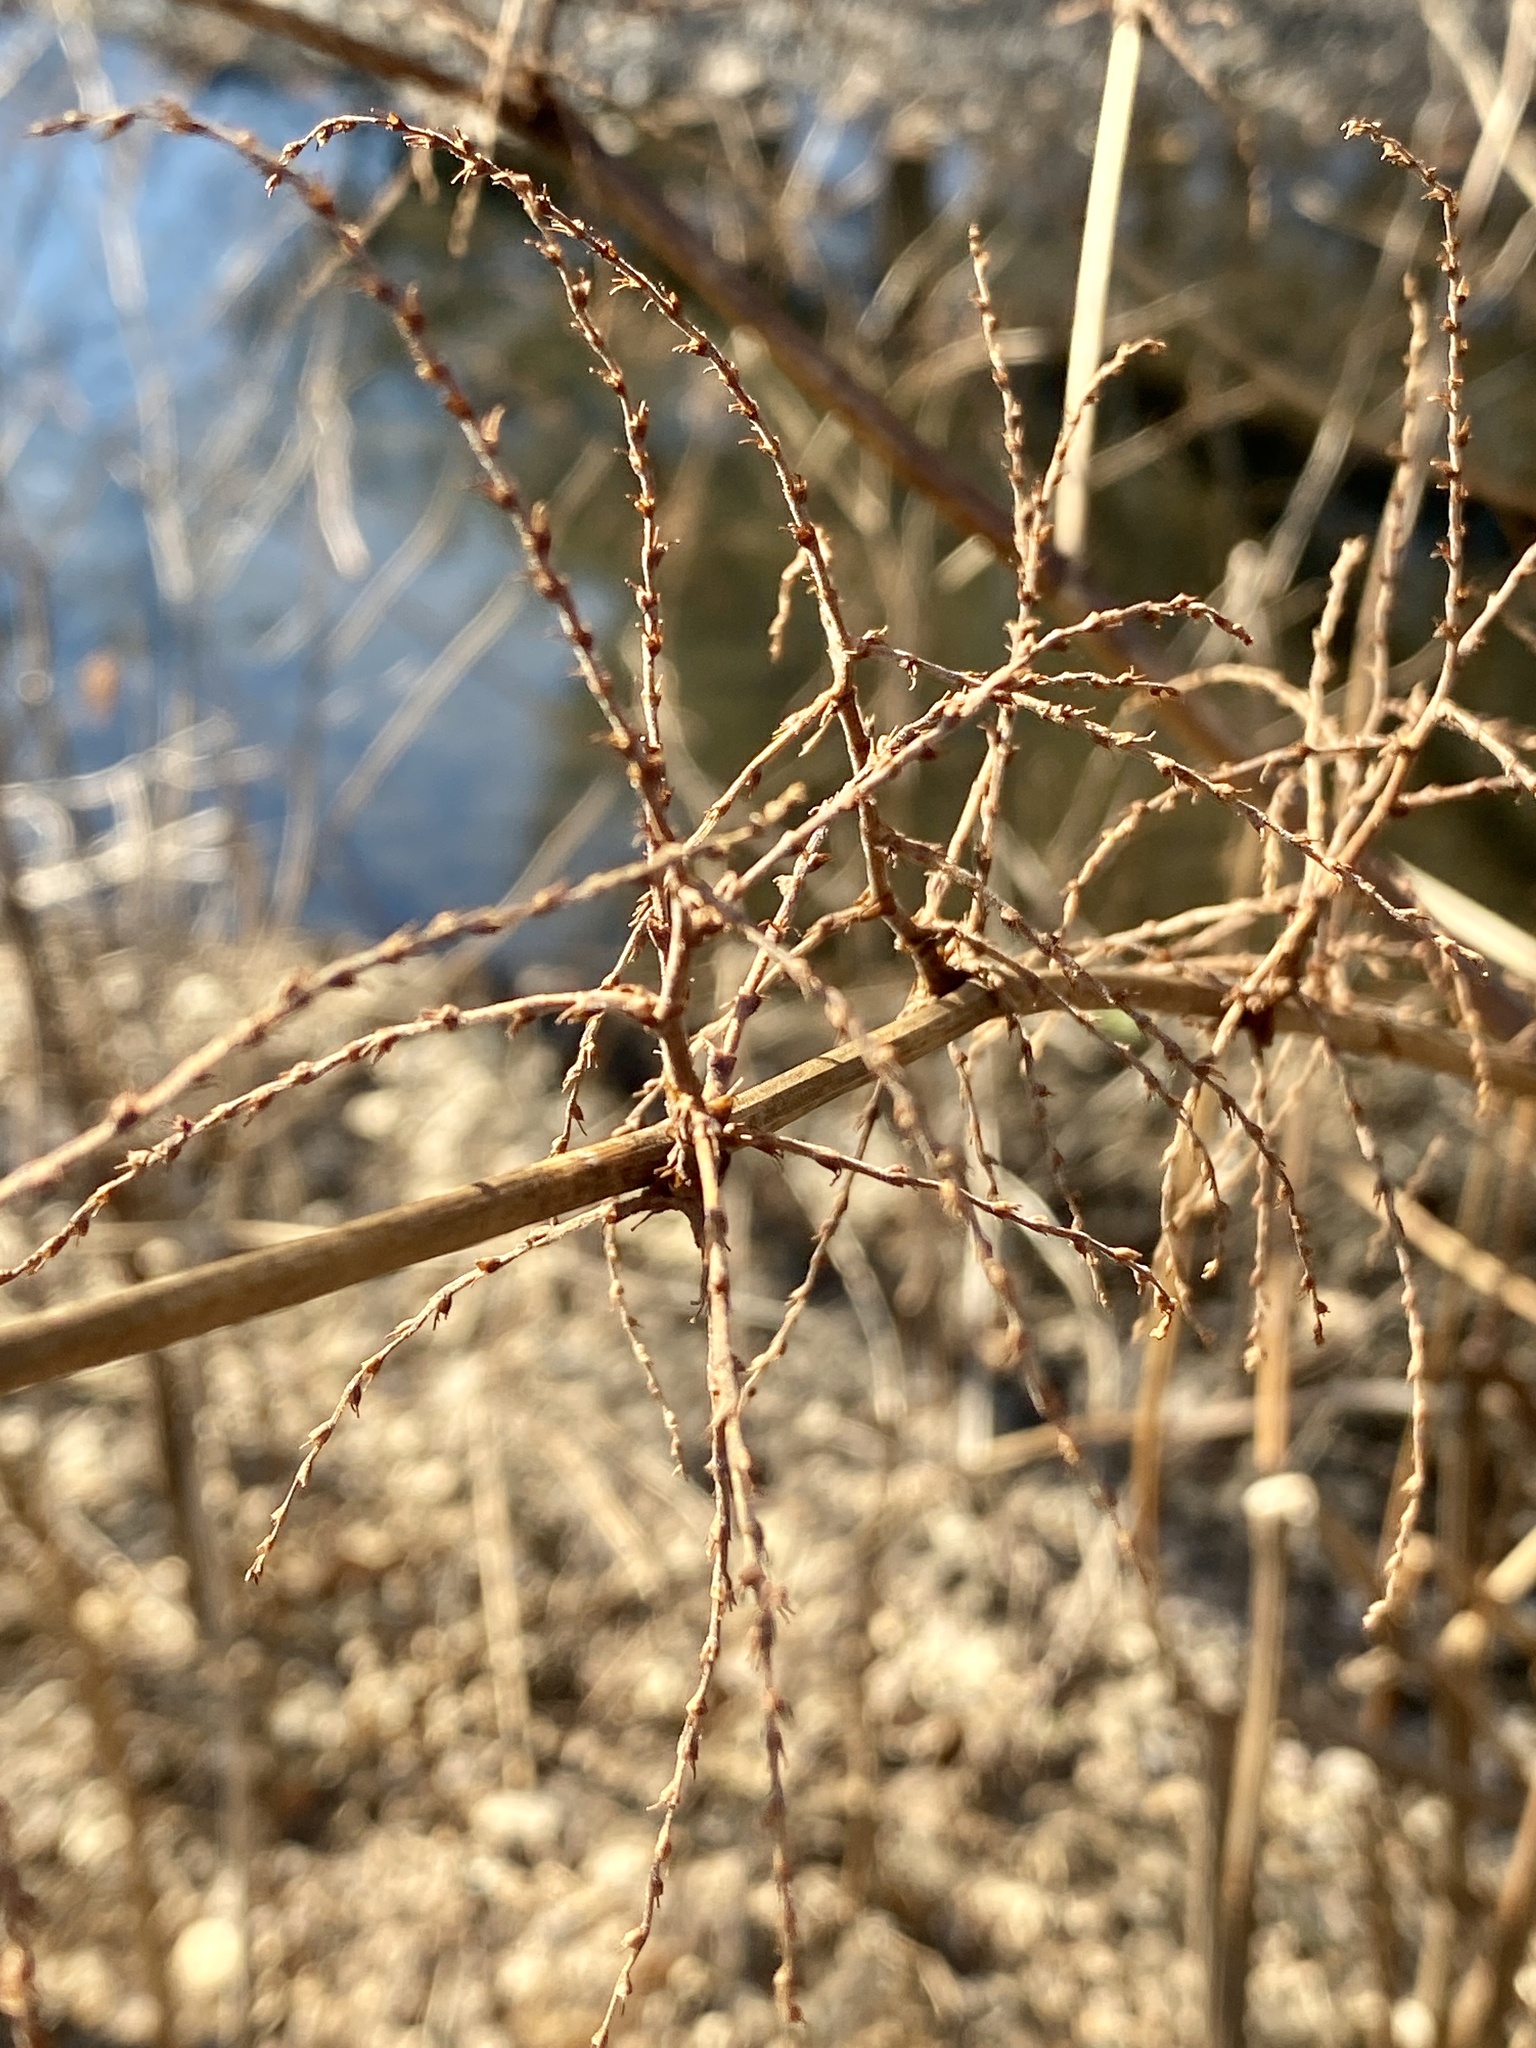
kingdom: Plantae
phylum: Tracheophyta
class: Magnoliopsida
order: Caryophyllales
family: Polygonaceae
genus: Reynoutria
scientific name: Reynoutria japonica
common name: Japanese knotweed
